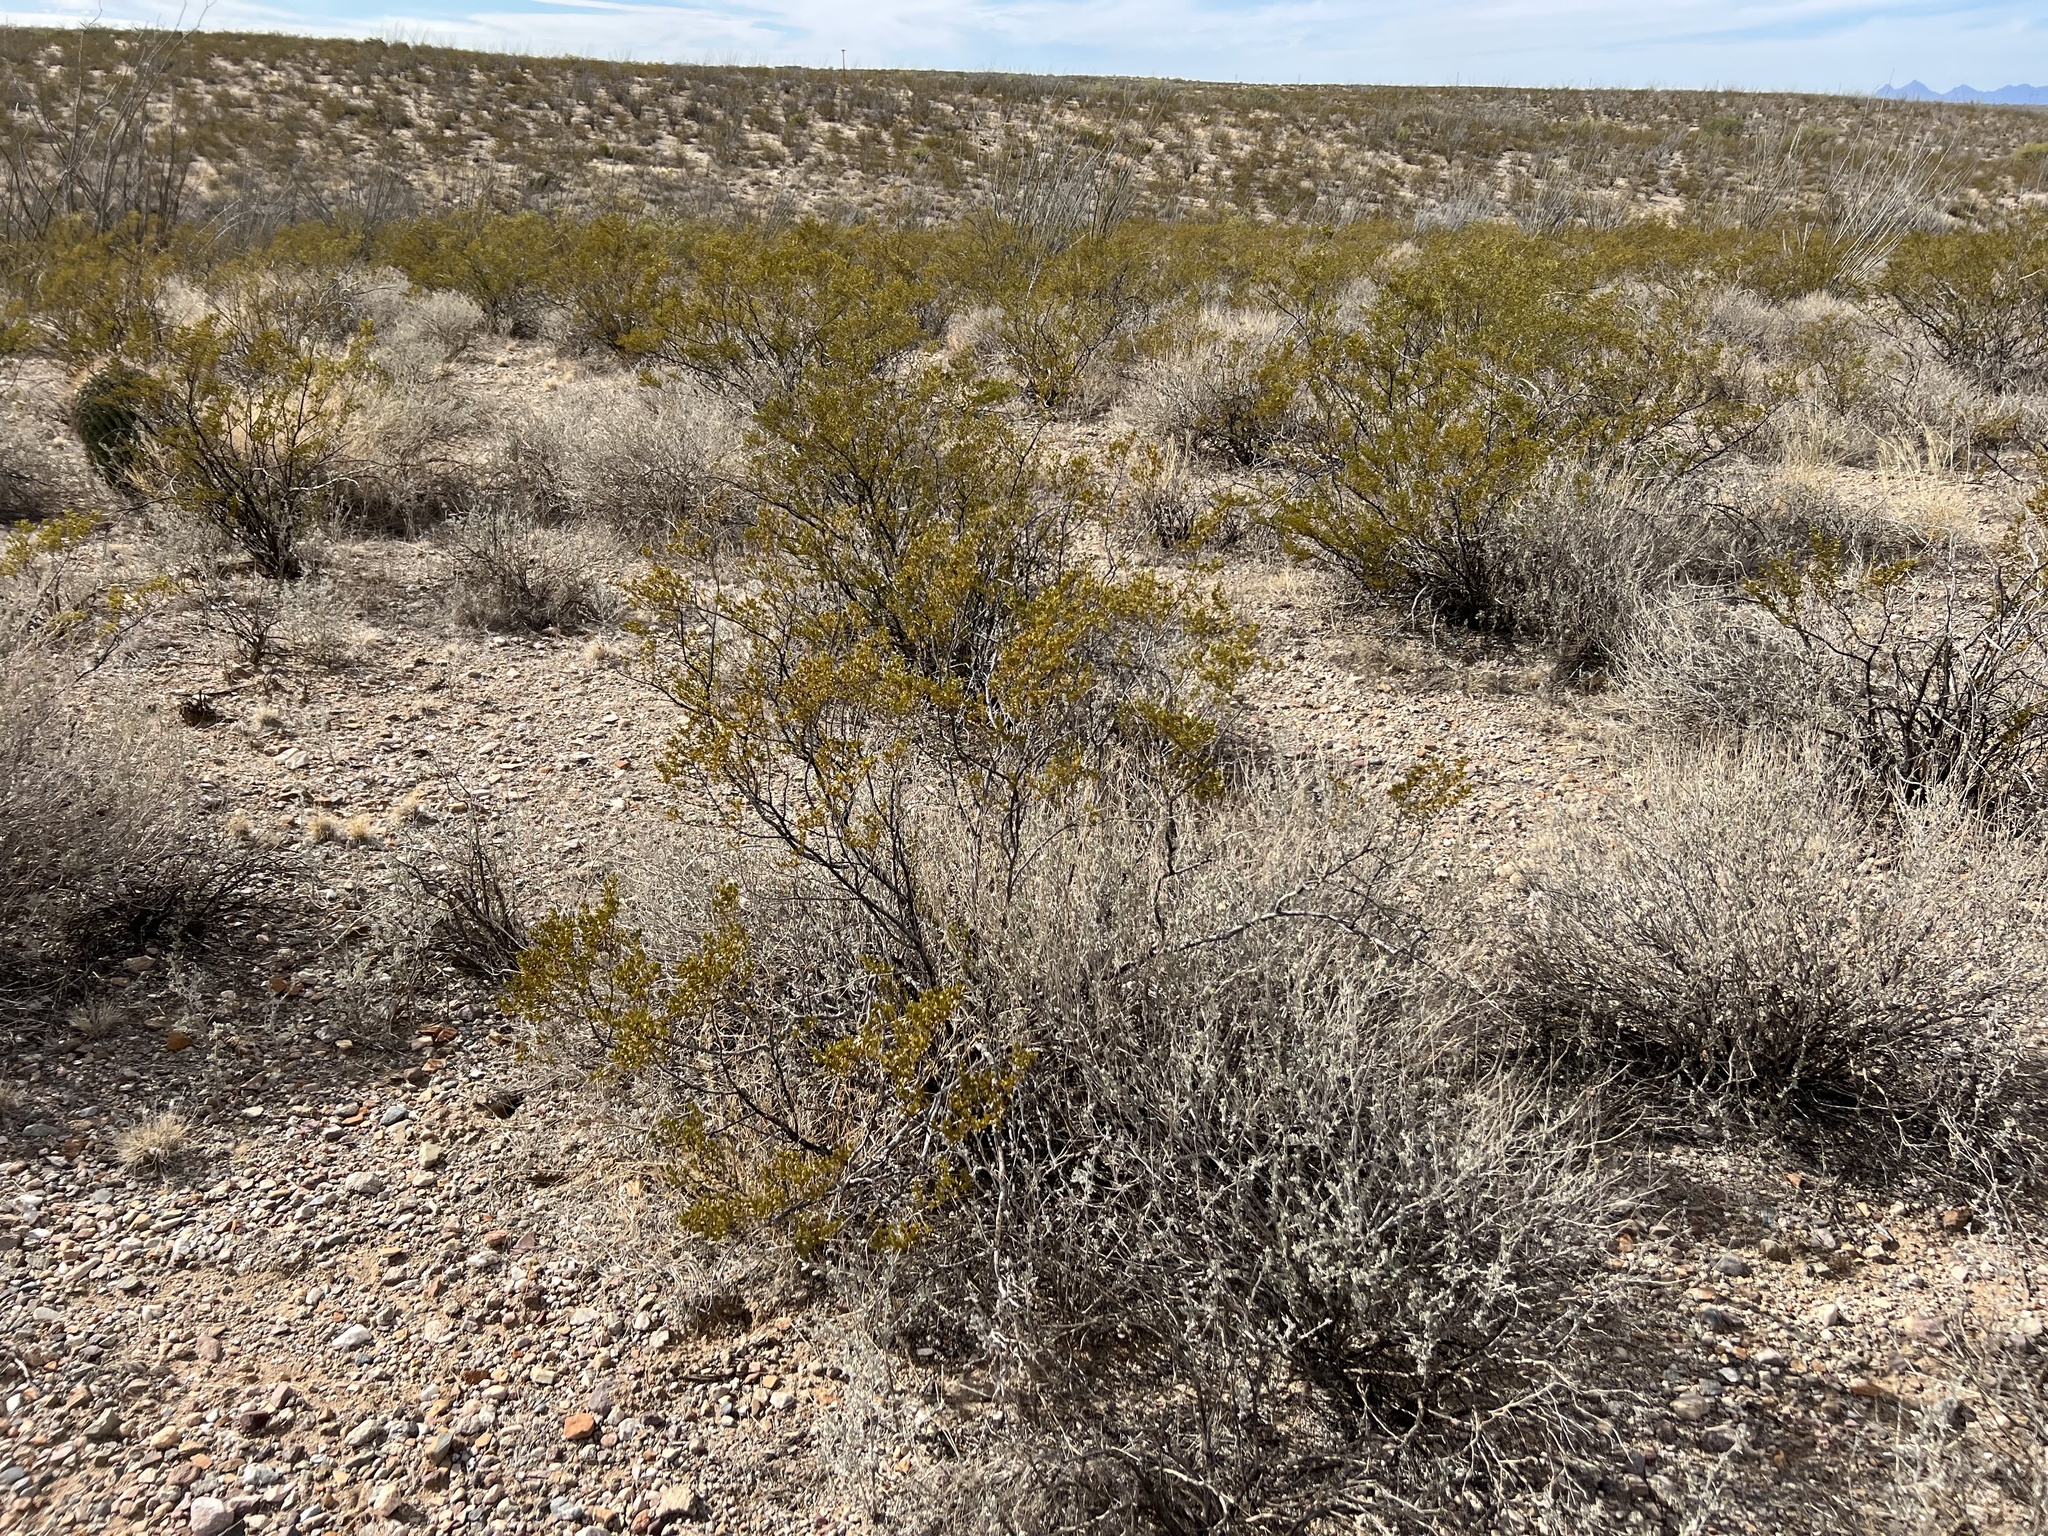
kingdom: Plantae
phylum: Tracheophyta
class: Magnoliopsida
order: Zygophyllales
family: Zygophyllaceae
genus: Larrea
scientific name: Larrea tridentata
